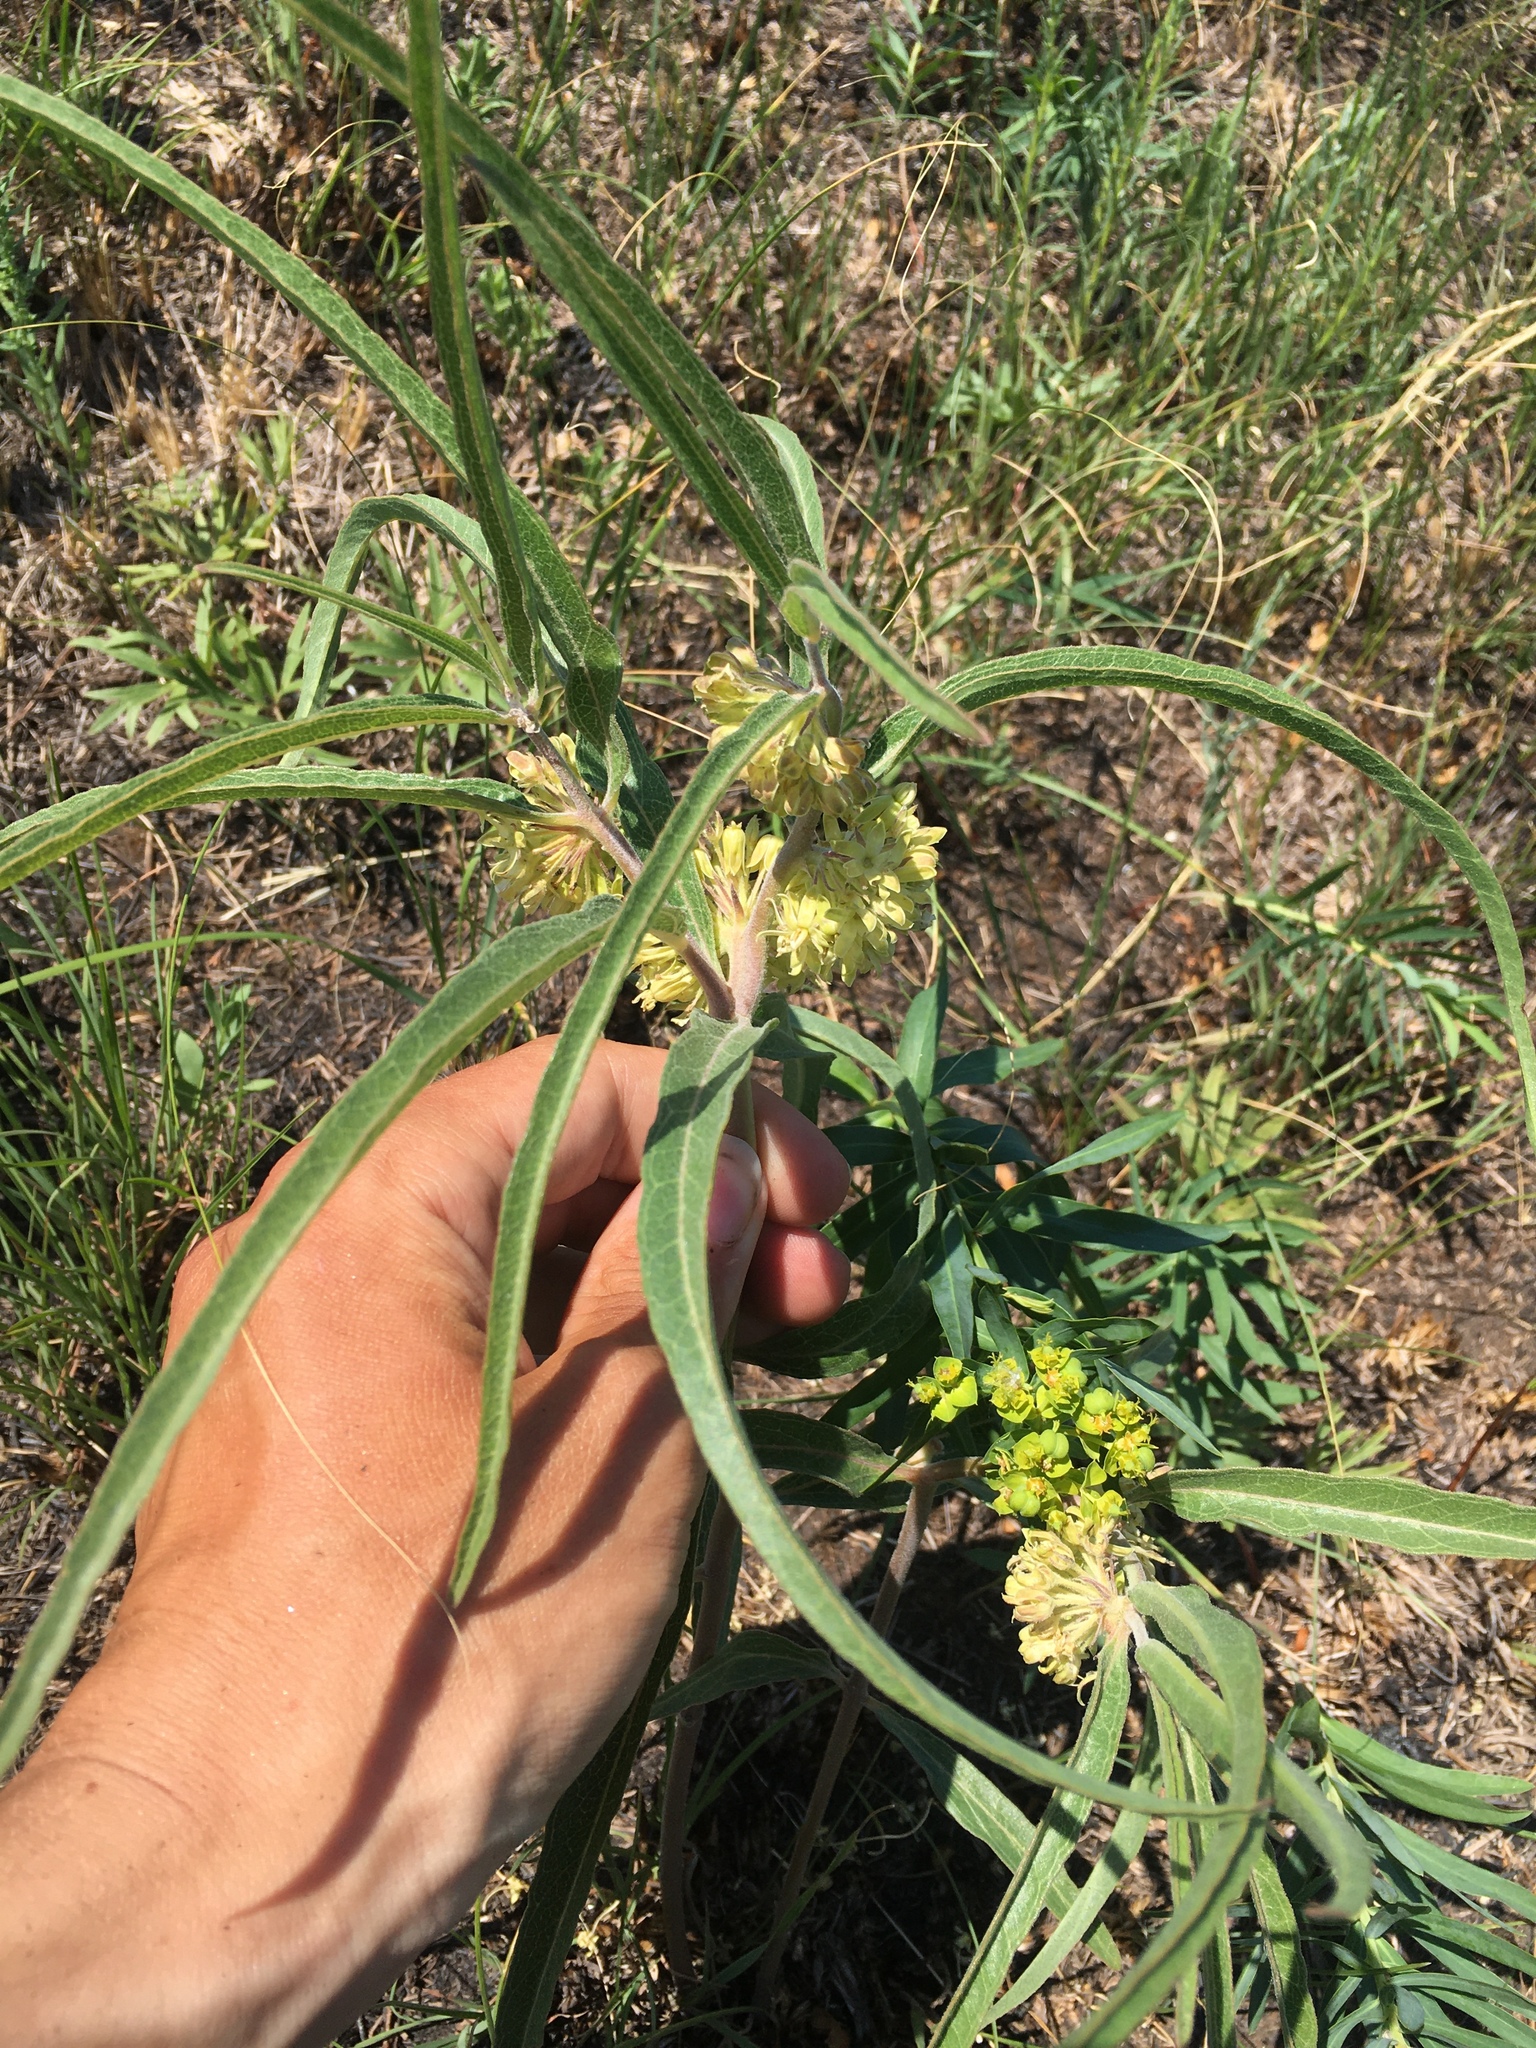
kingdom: Plantae
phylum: Tracheophyta
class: Magnoliopsida
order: Gentianales
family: Apocynaceae
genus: Asclepias
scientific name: Asclepias viridiflora
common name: Green comet milkweed
